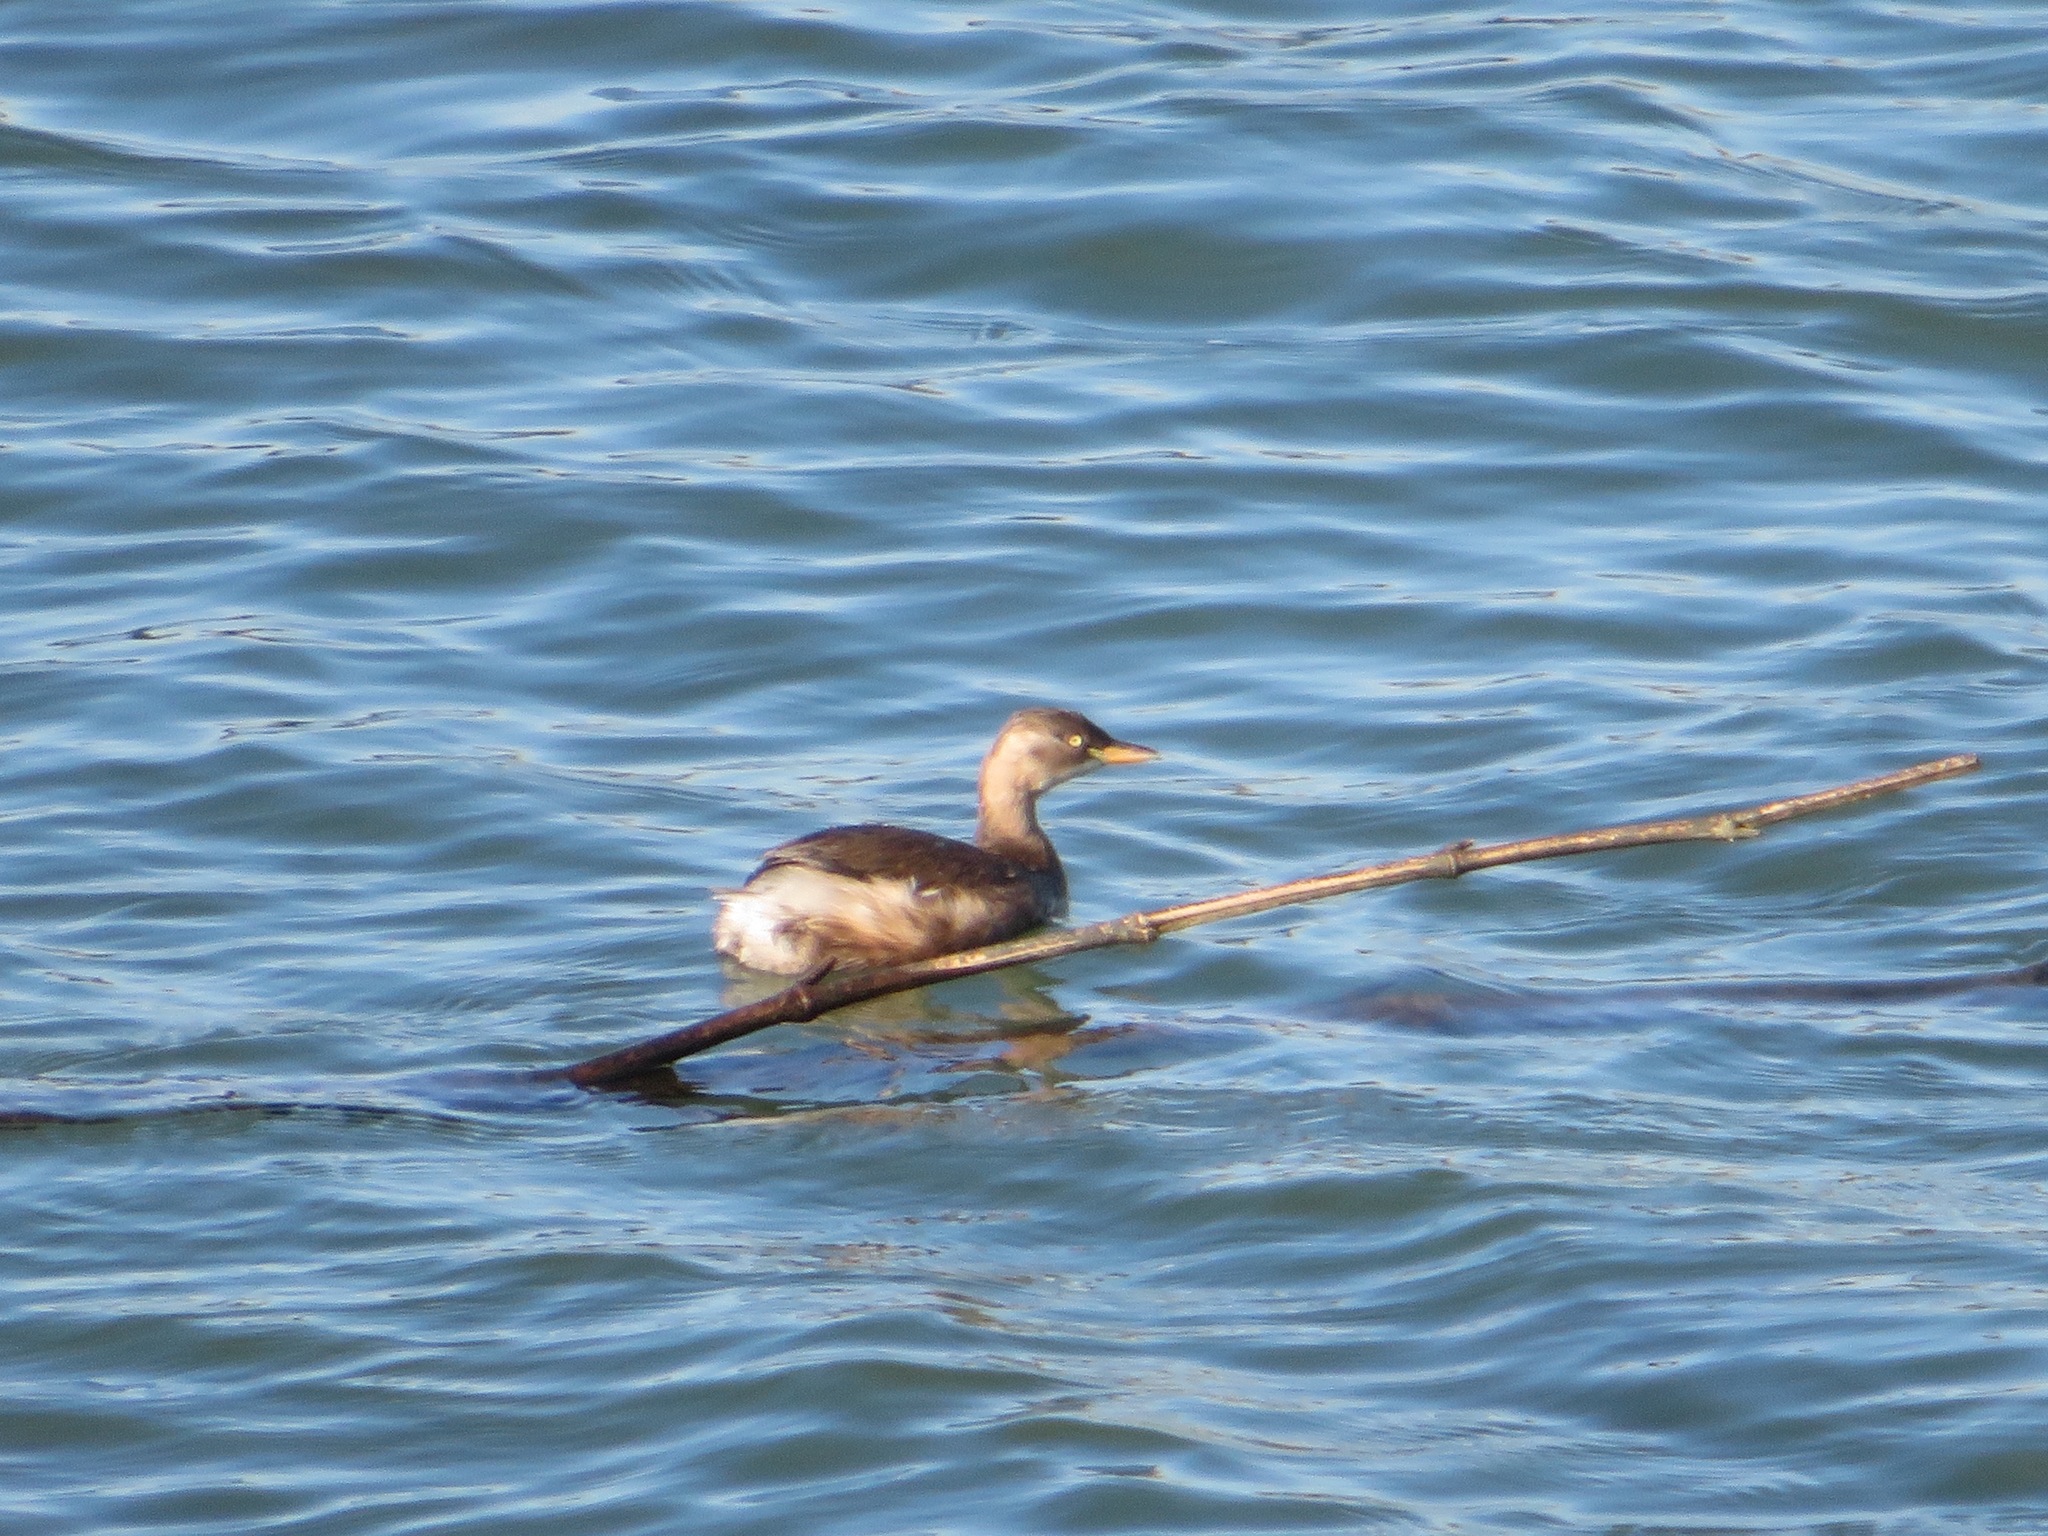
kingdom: Animalia
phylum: Chordata
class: Aves
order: Podicipediformes
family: Podicipedidae
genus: Tachybaptus
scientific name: Tachybaptus ruficollis
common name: Little grebe
